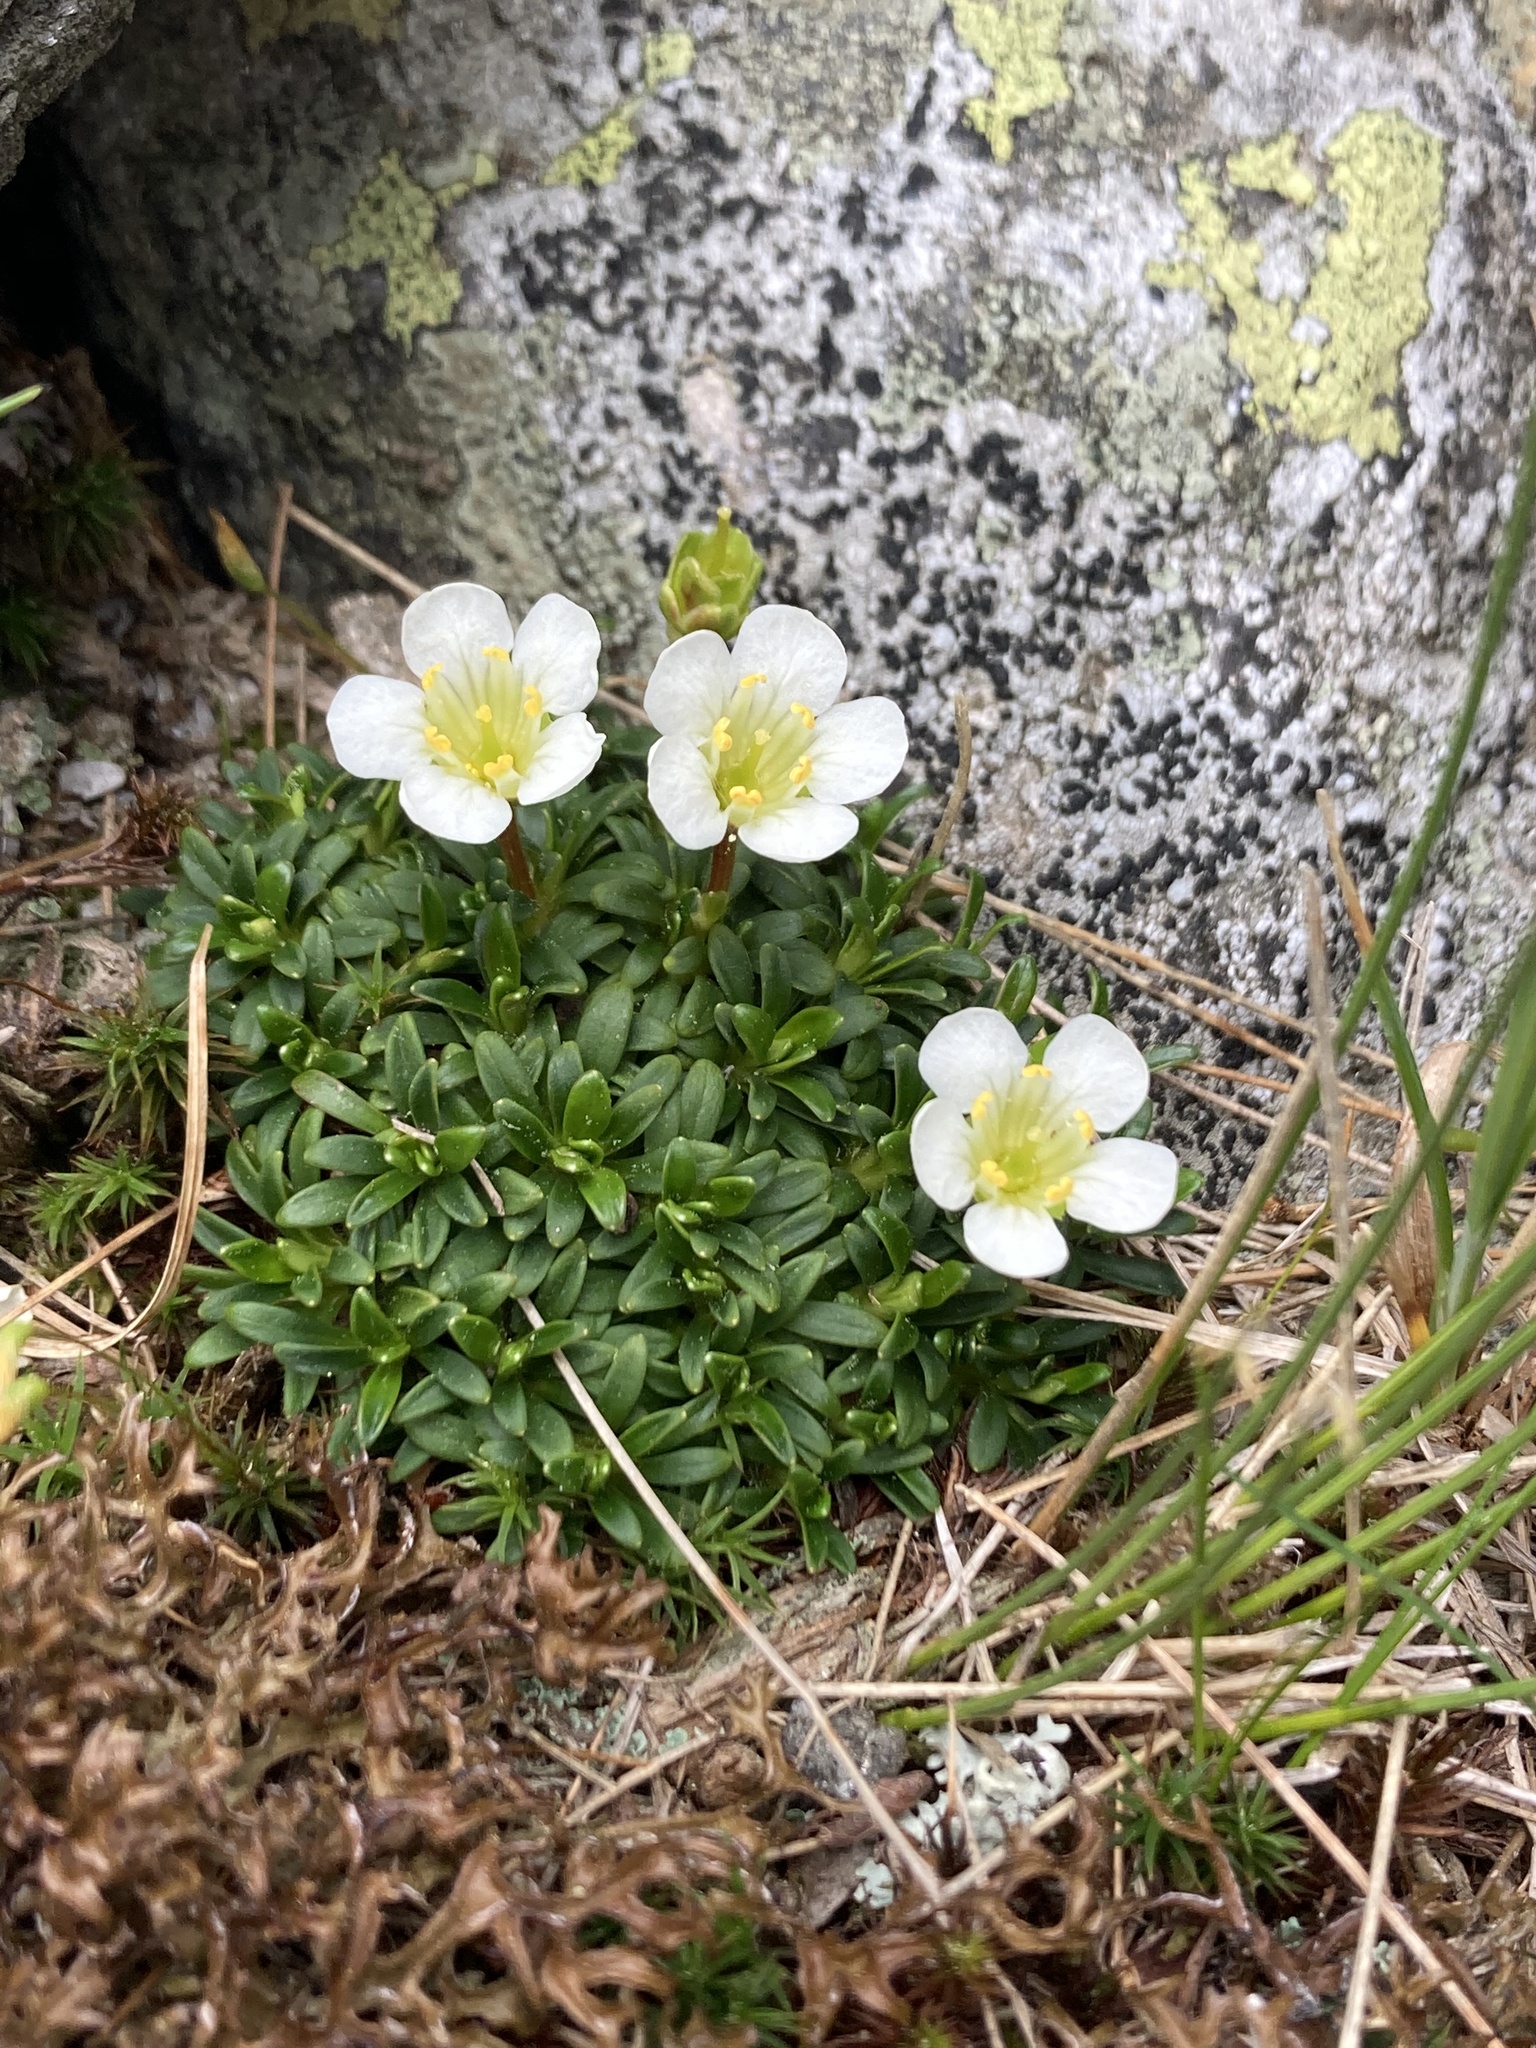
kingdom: Plantae
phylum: Tracheophyta
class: Magnoliopsida
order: Ericales
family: Diapensiaceae
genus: Diapensia
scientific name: Diapensia lapponica
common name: Diapensia
